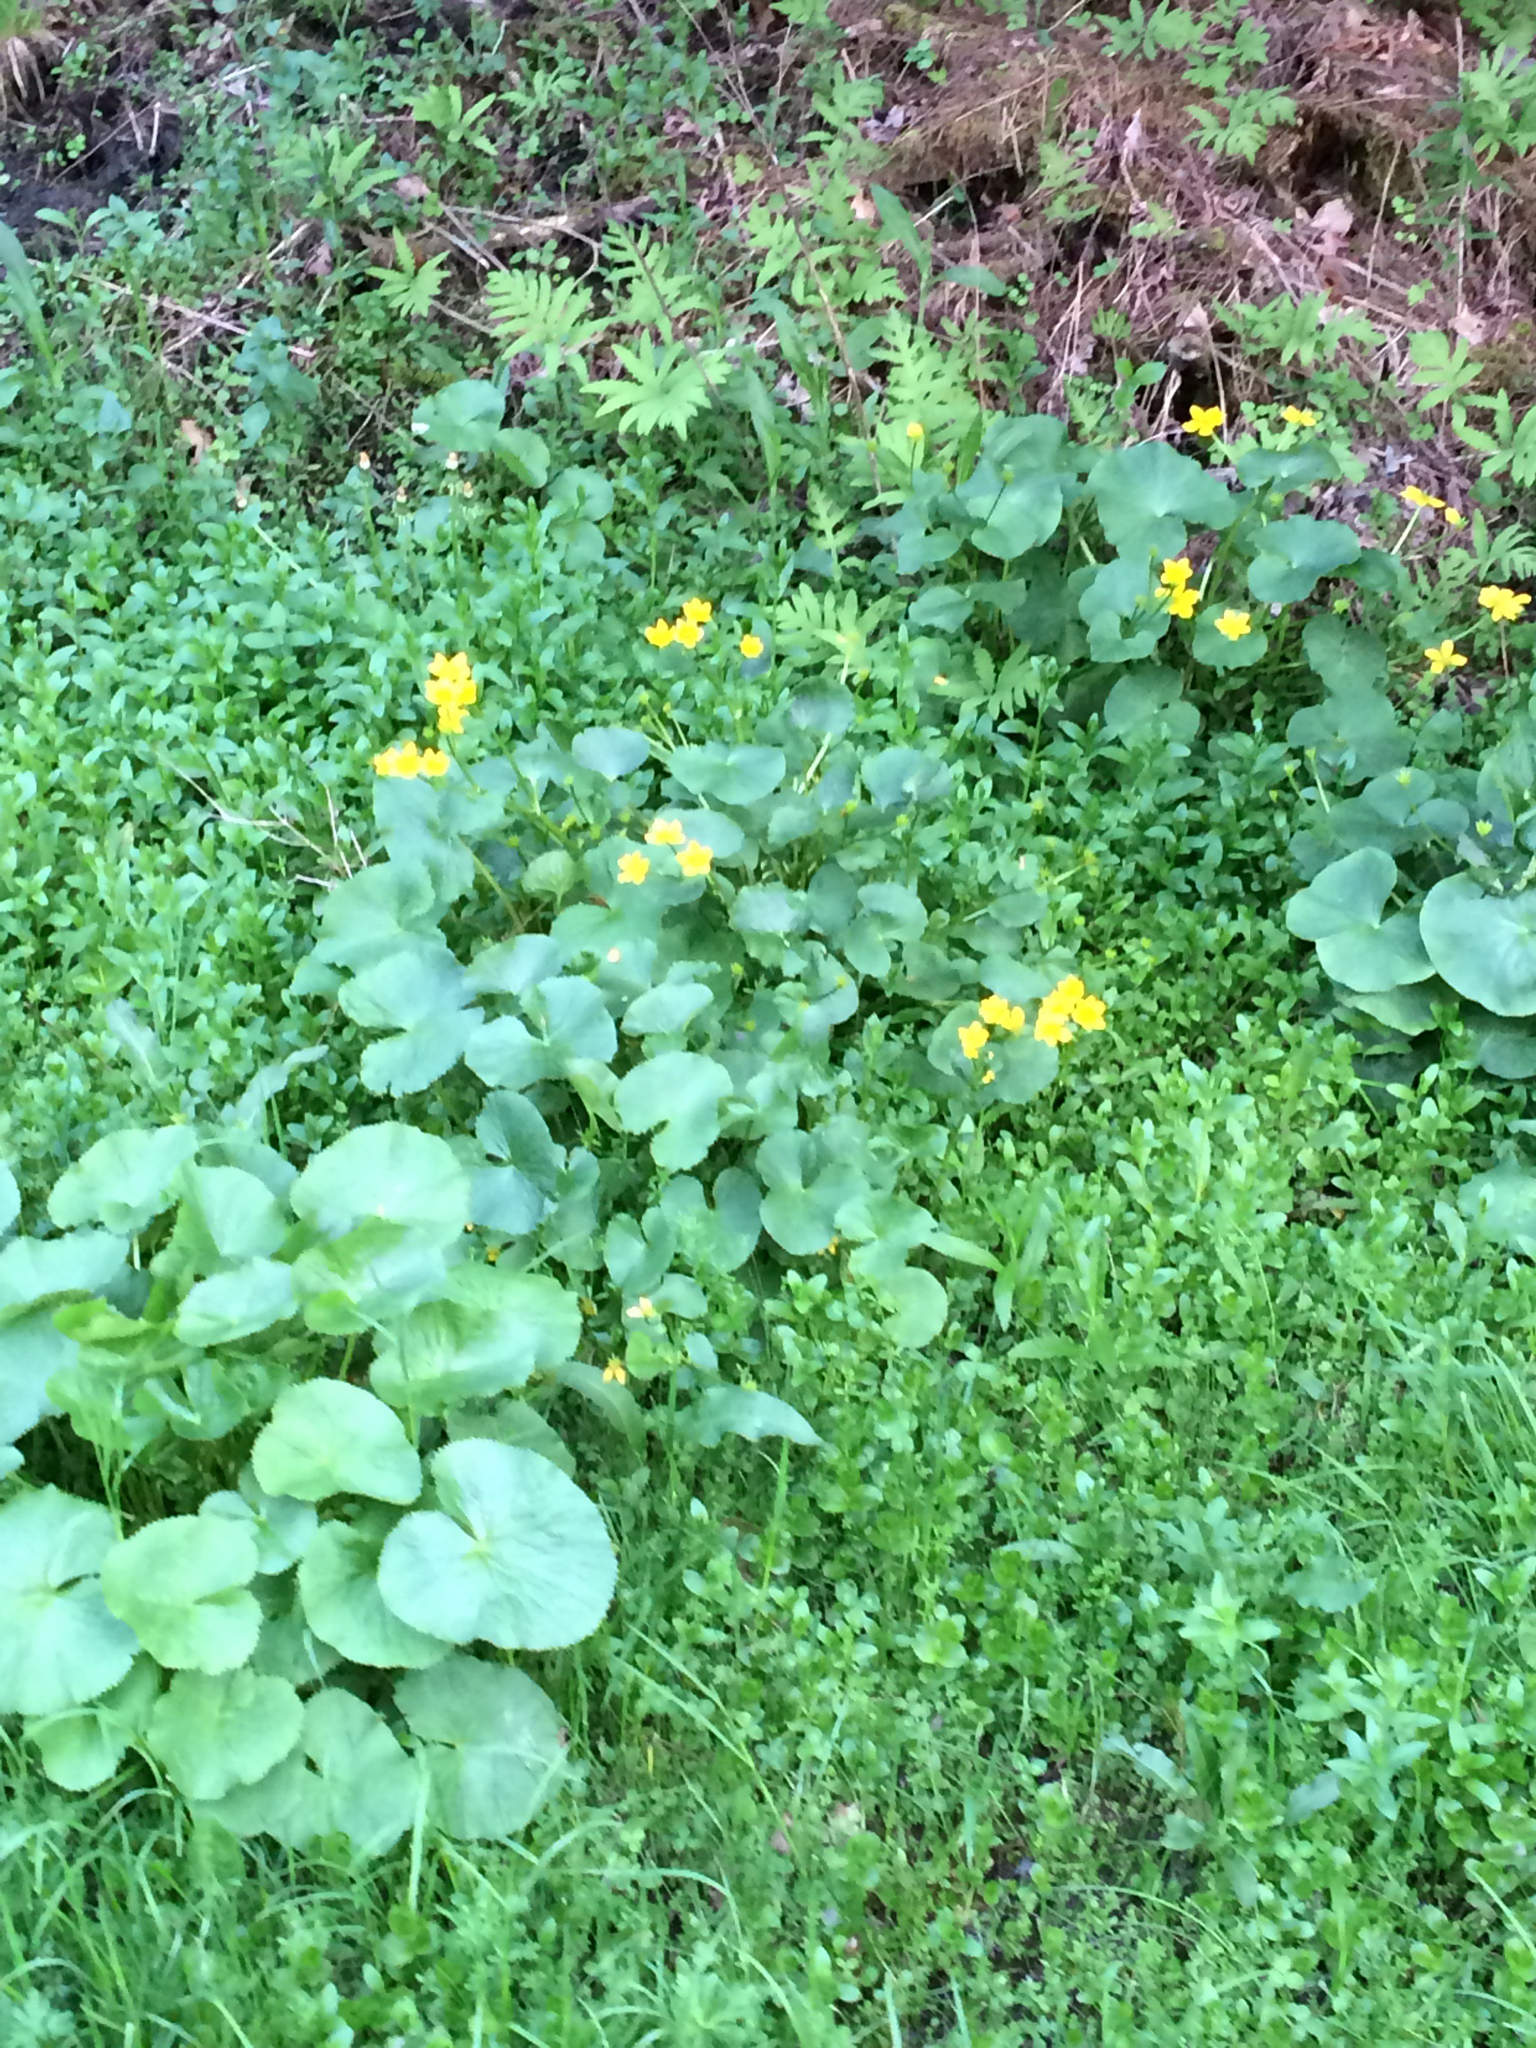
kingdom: Plantae
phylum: Tracheophyta
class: Magnoliopsida
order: Ranunculales
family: Ranunculaceae
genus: Caltha
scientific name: Caltha palustris
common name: Marsh marigold
